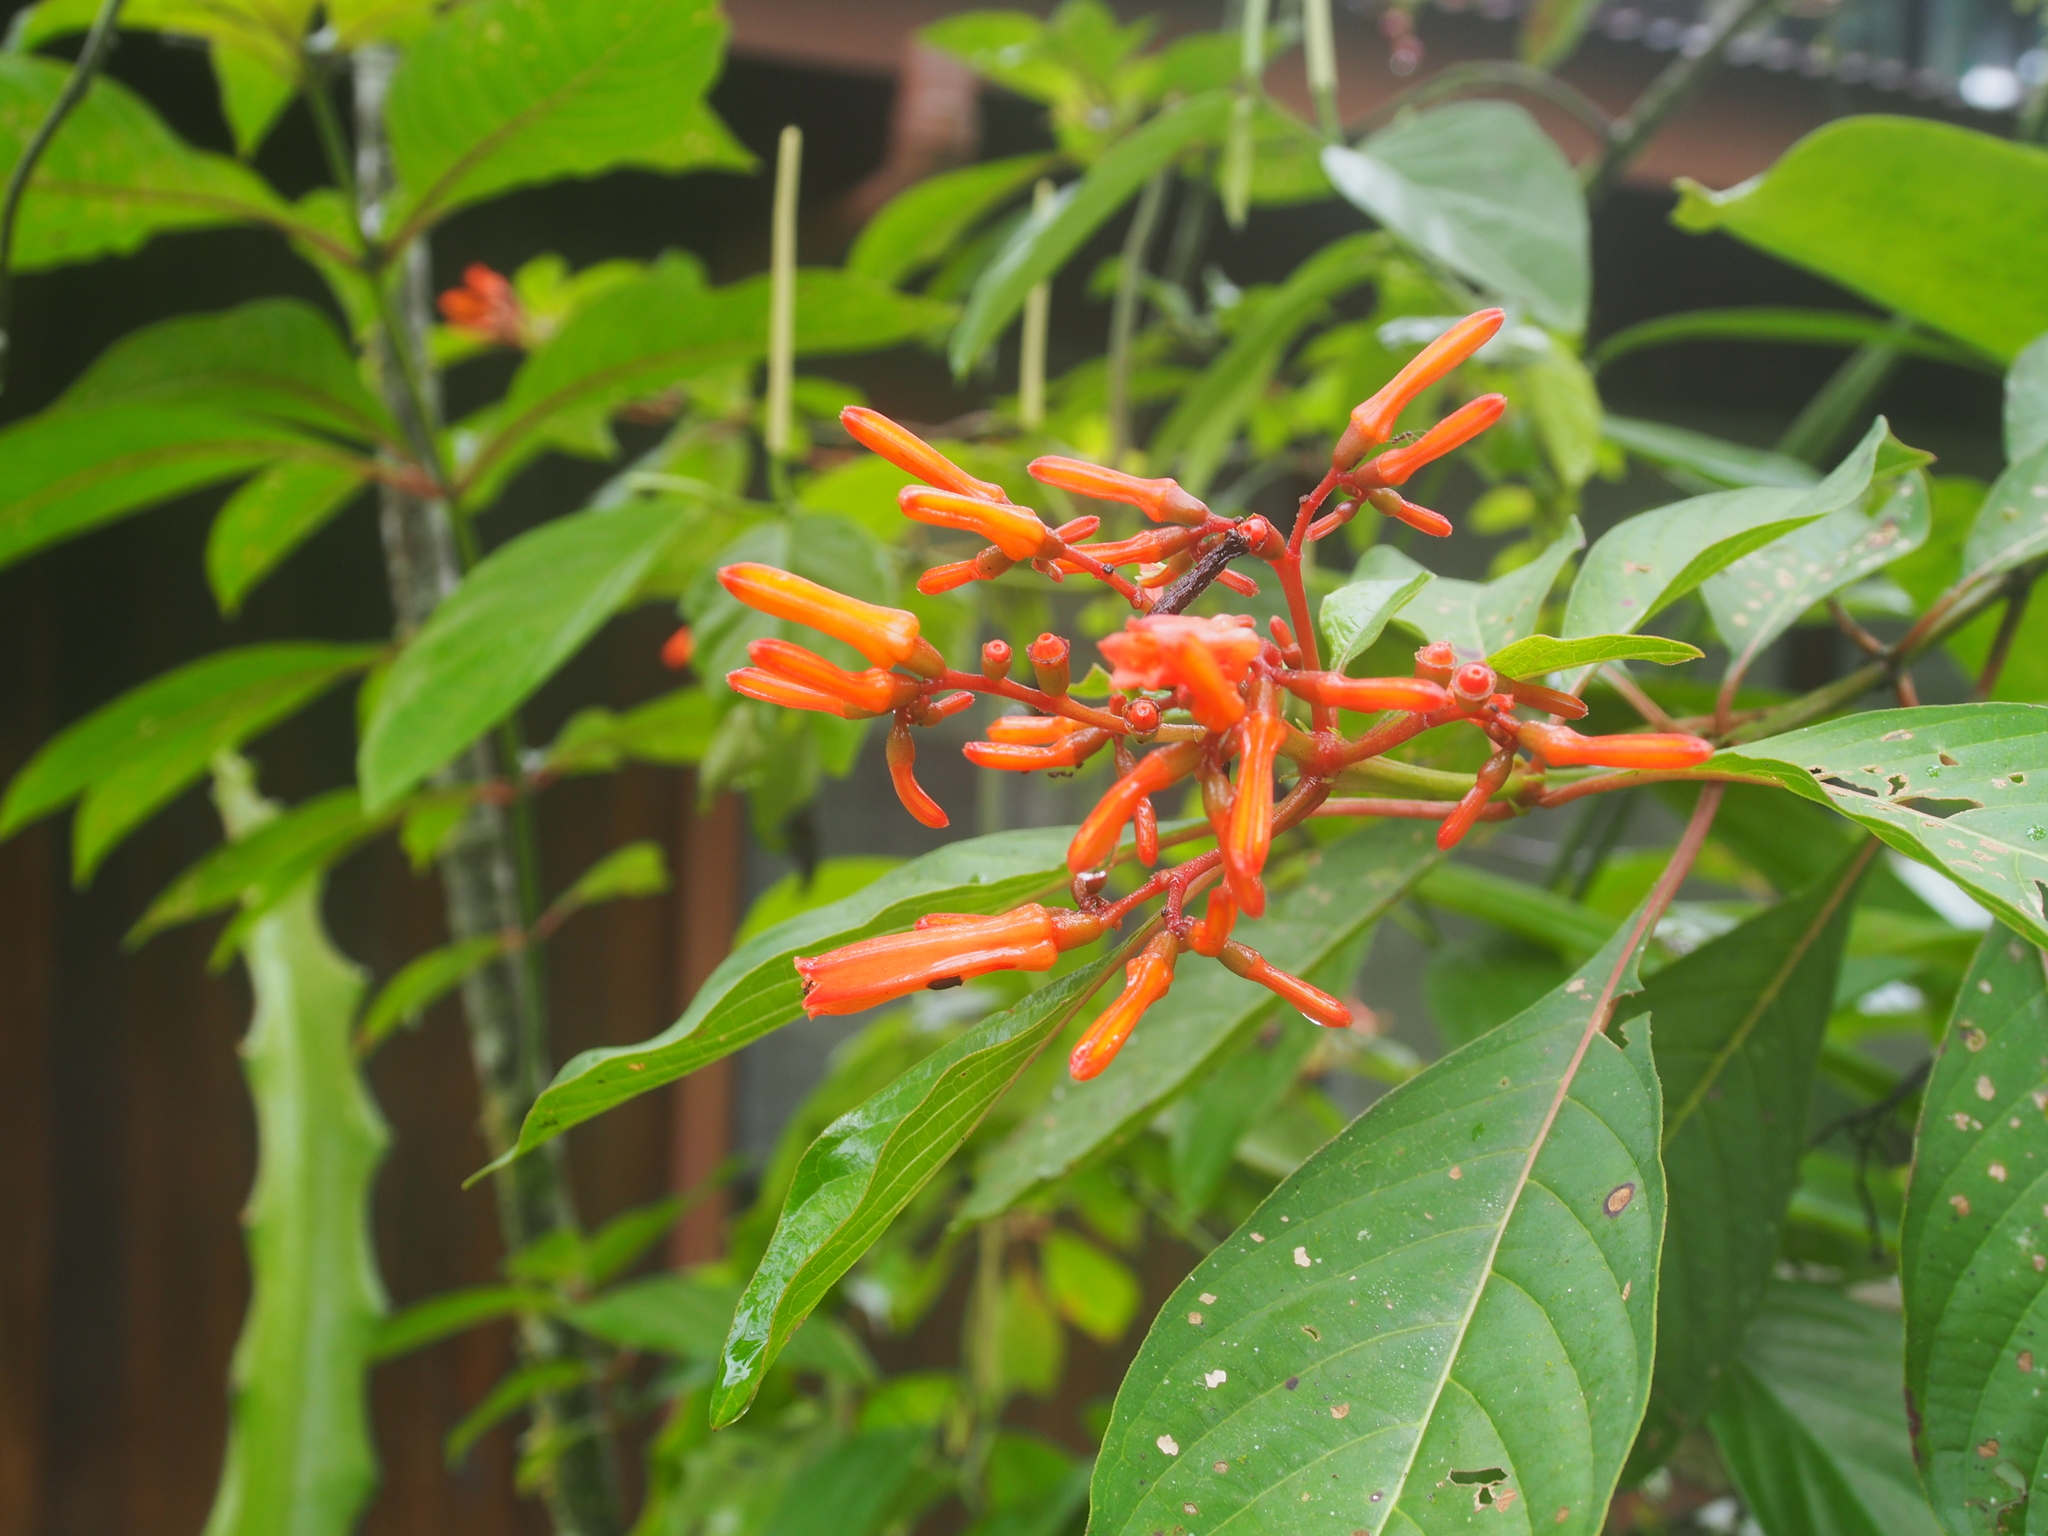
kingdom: Plantae
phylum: Tracheophyta
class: Magnoliopsida
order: Gentianales
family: Rubiaceae
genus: Hamelia
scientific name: Hamelia patens
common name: Redhead
